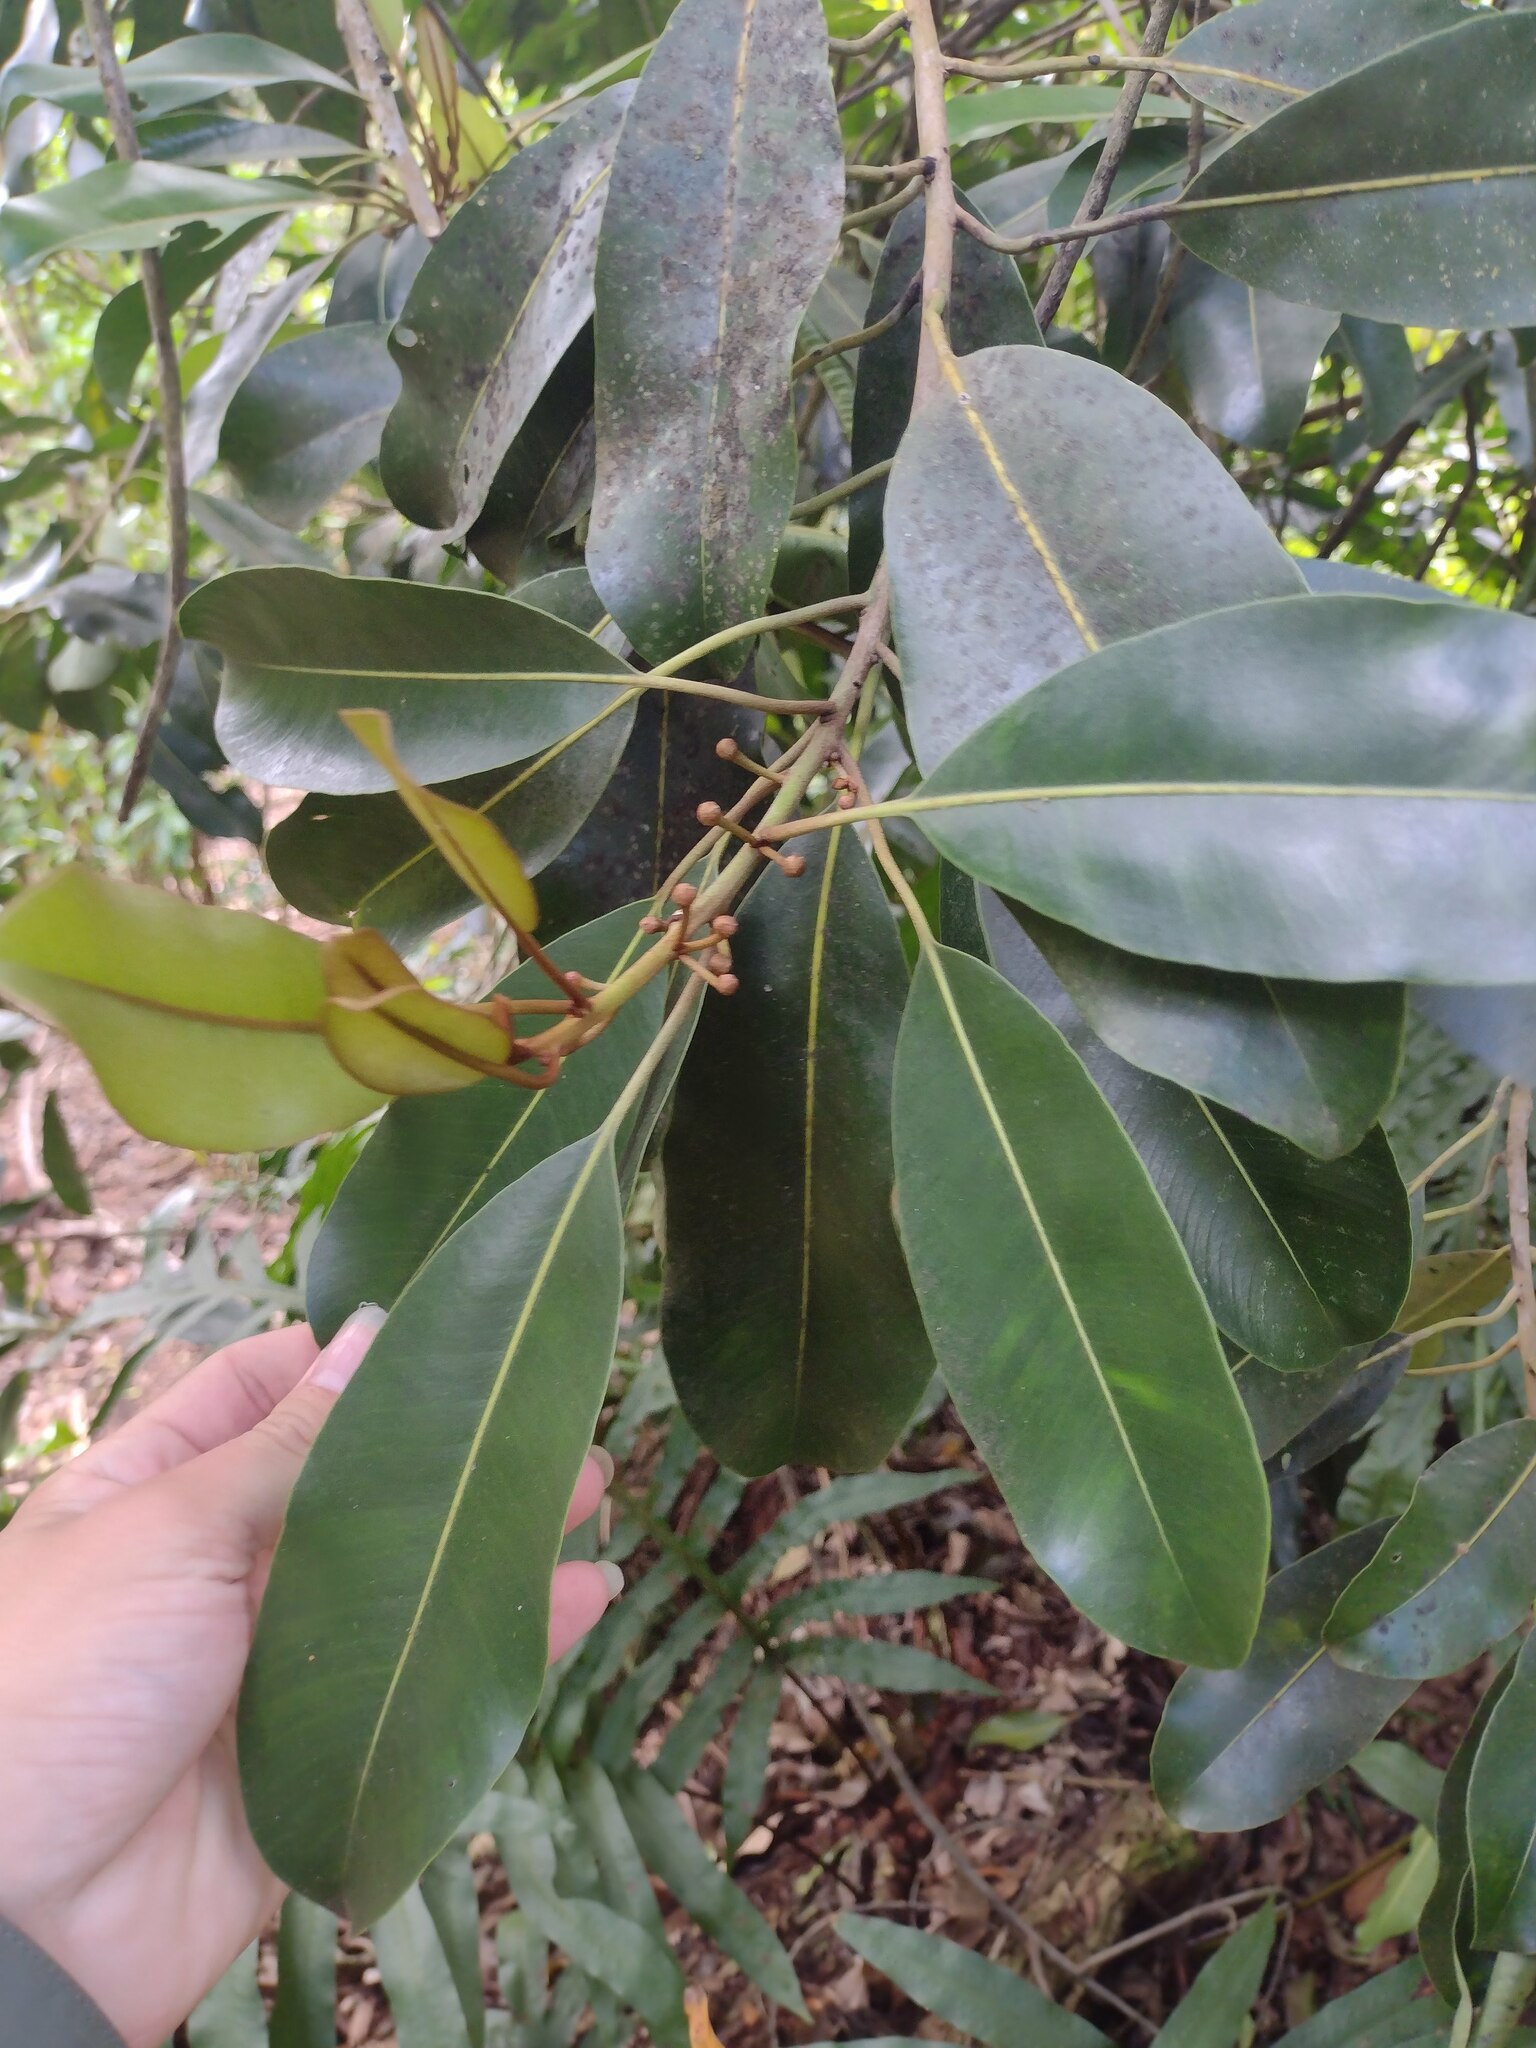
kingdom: Plantae
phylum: Tracheophyta
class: Magnoliopsida
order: Ericales
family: Sapotaceae
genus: Planchonella
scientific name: Planchonella sandwicensis
